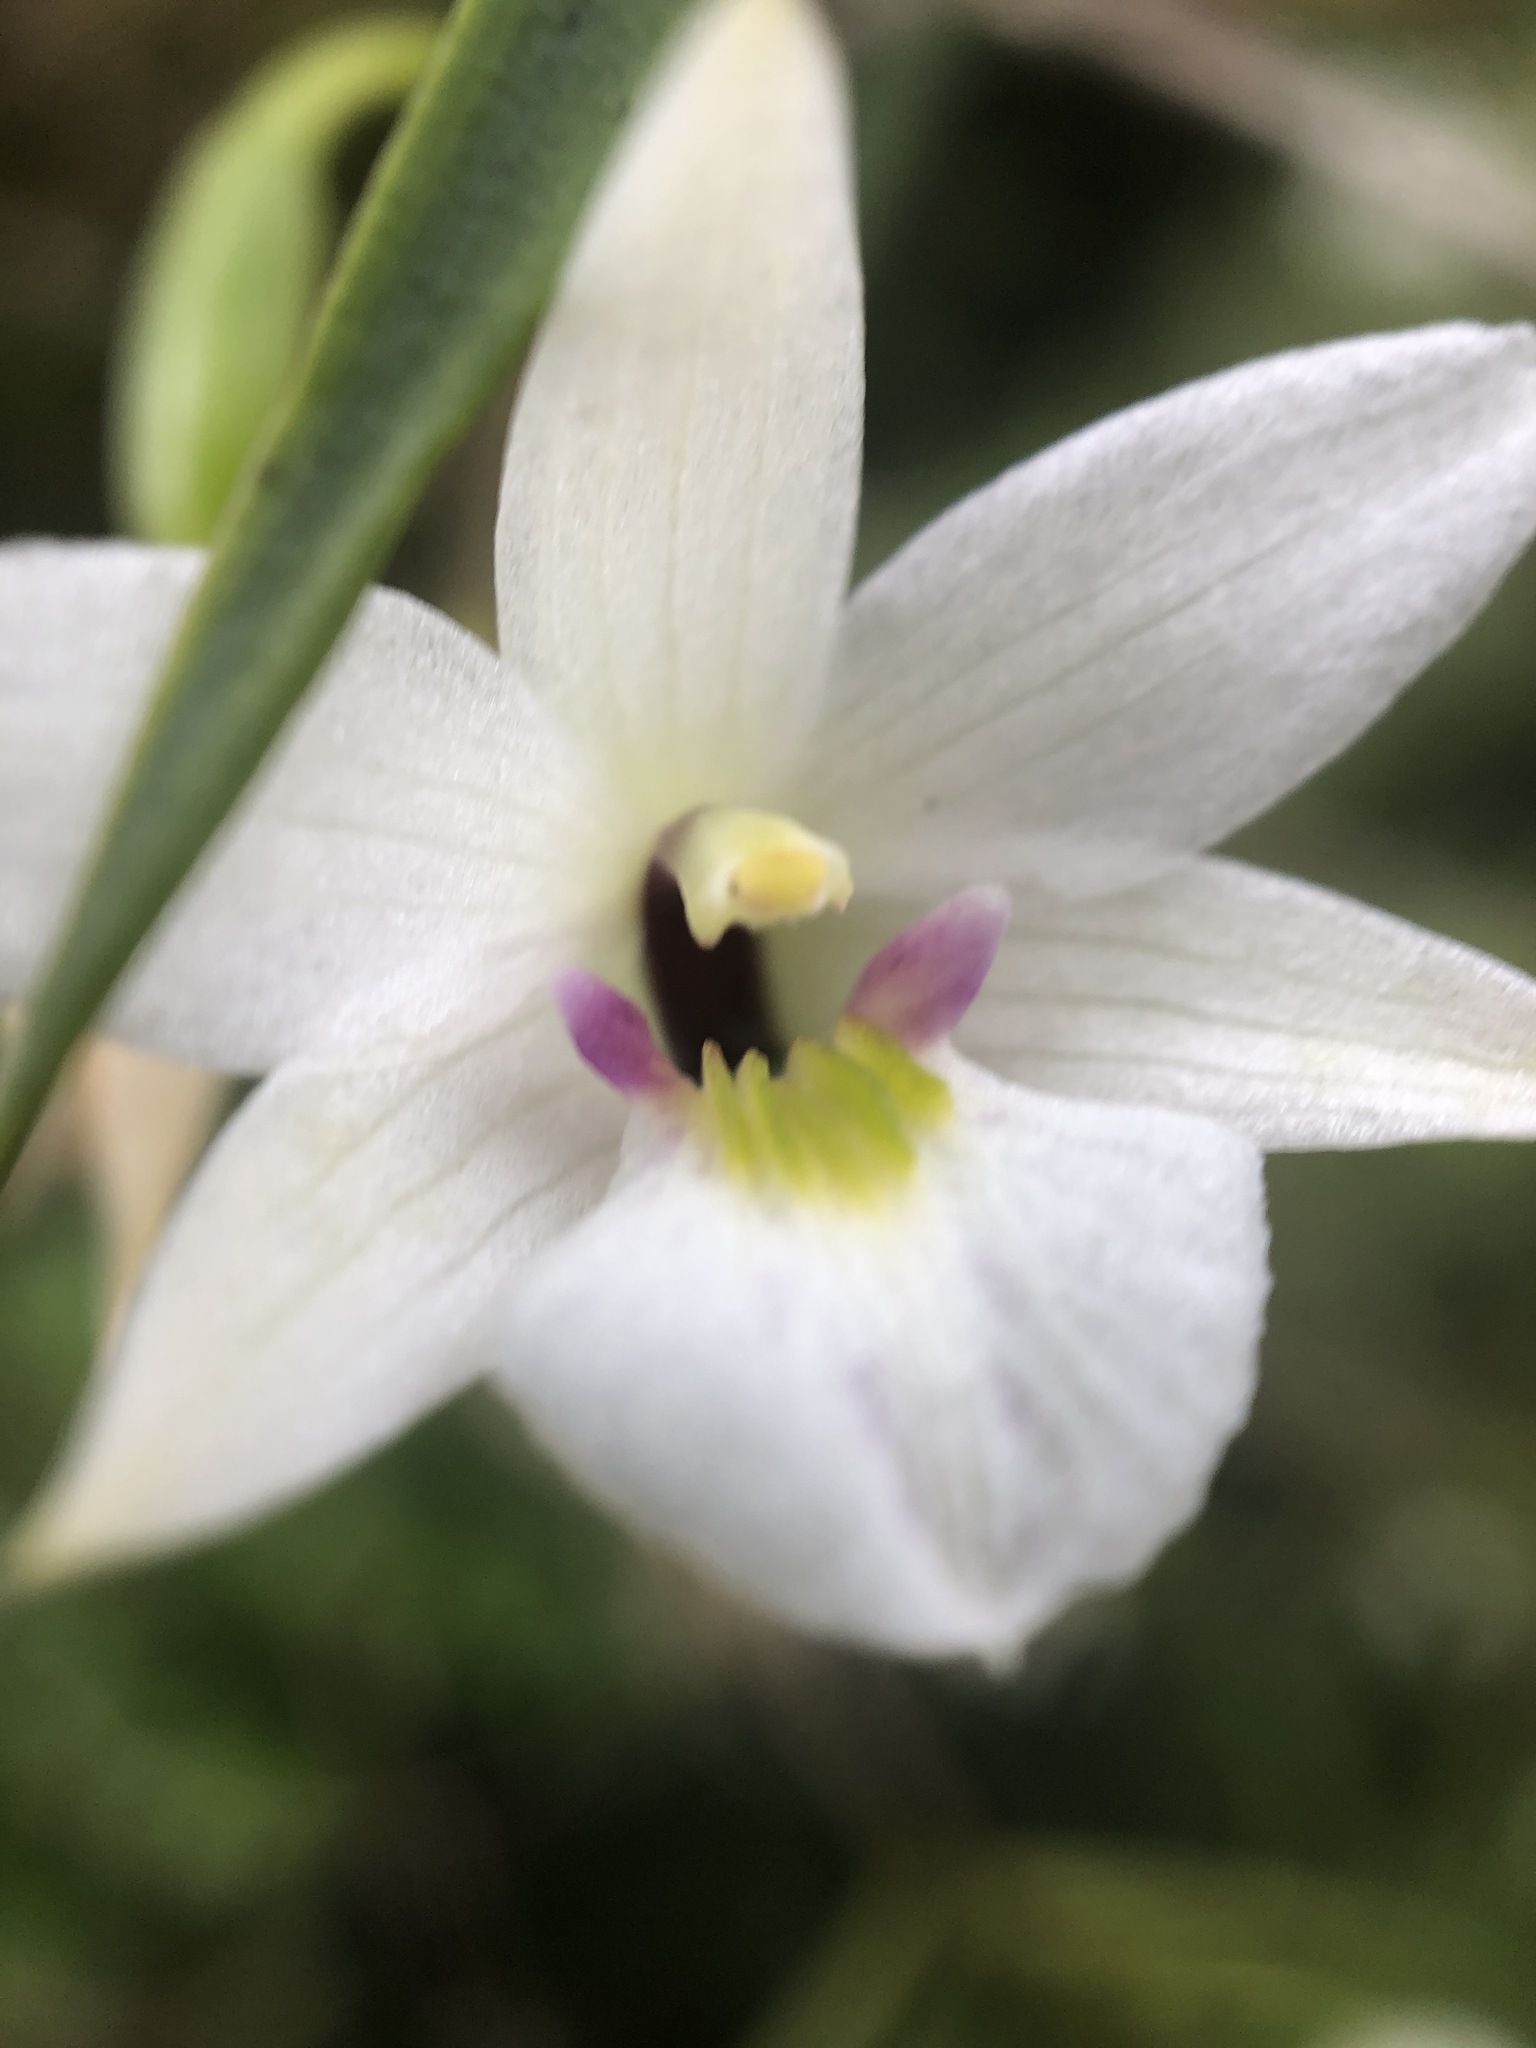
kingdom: Plantae
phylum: Tracheophyta
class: Liliopsida
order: Asparagales
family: Orchidaceae
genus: Dendrobium
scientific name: Dendrobium cunninghamii
